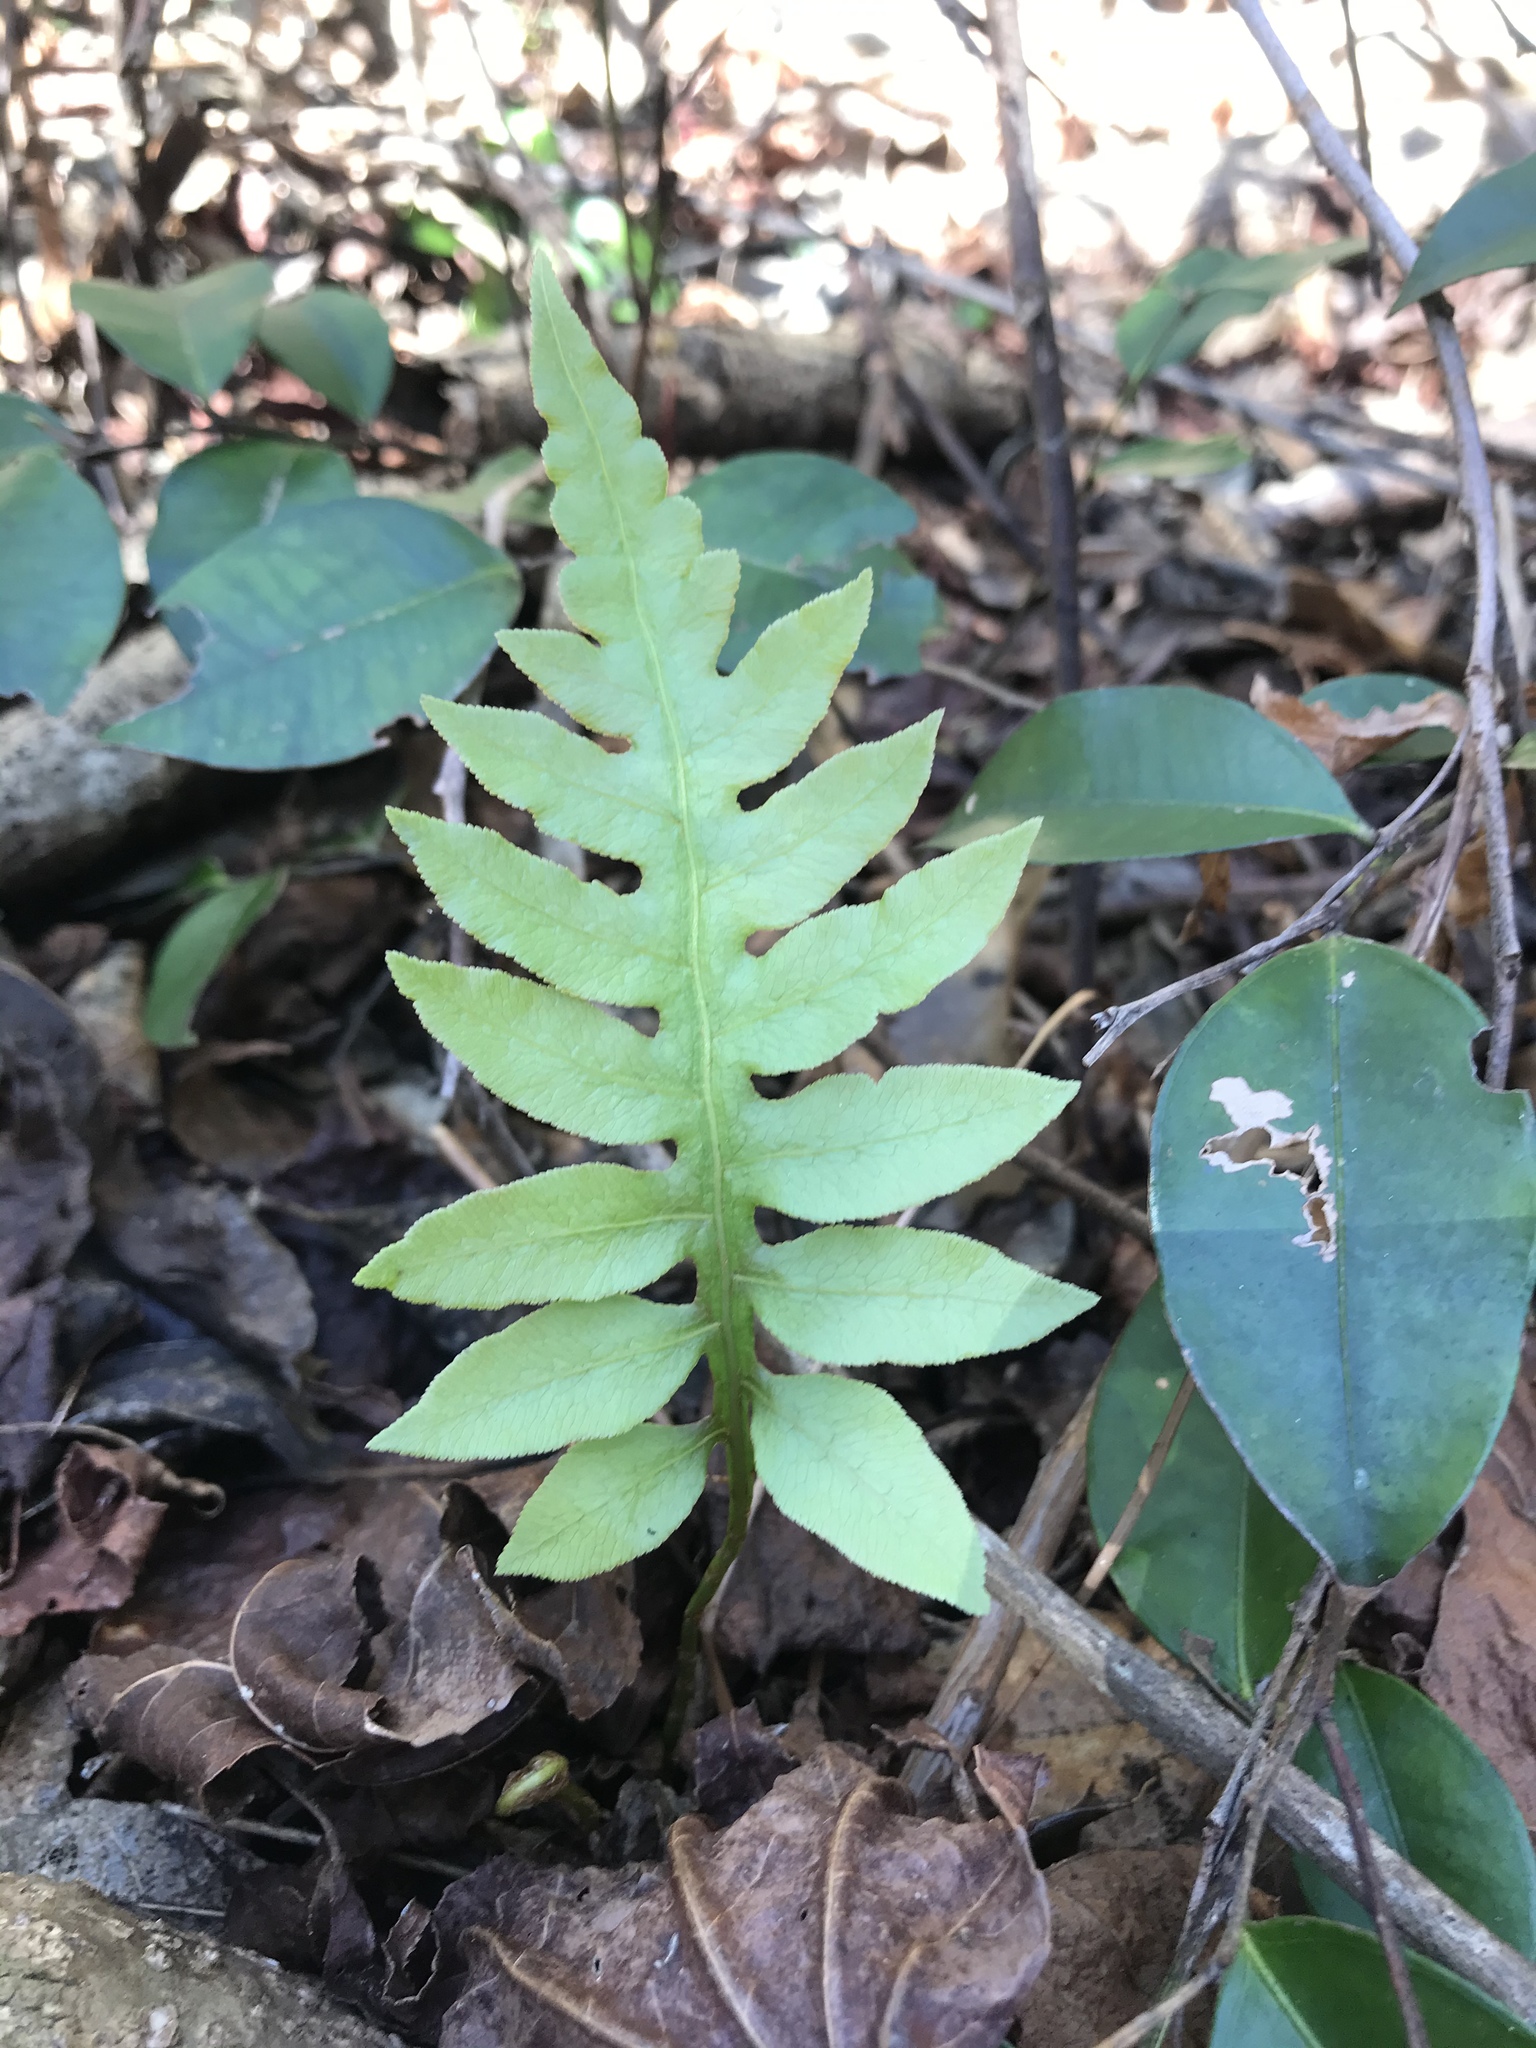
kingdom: Plantae
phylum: Tracheophyta
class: Polypodiopsida
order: Polypodiales
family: Blechnaceae
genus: Lorinseria
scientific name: Lorinseria areolata
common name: Dwarf chain fern
